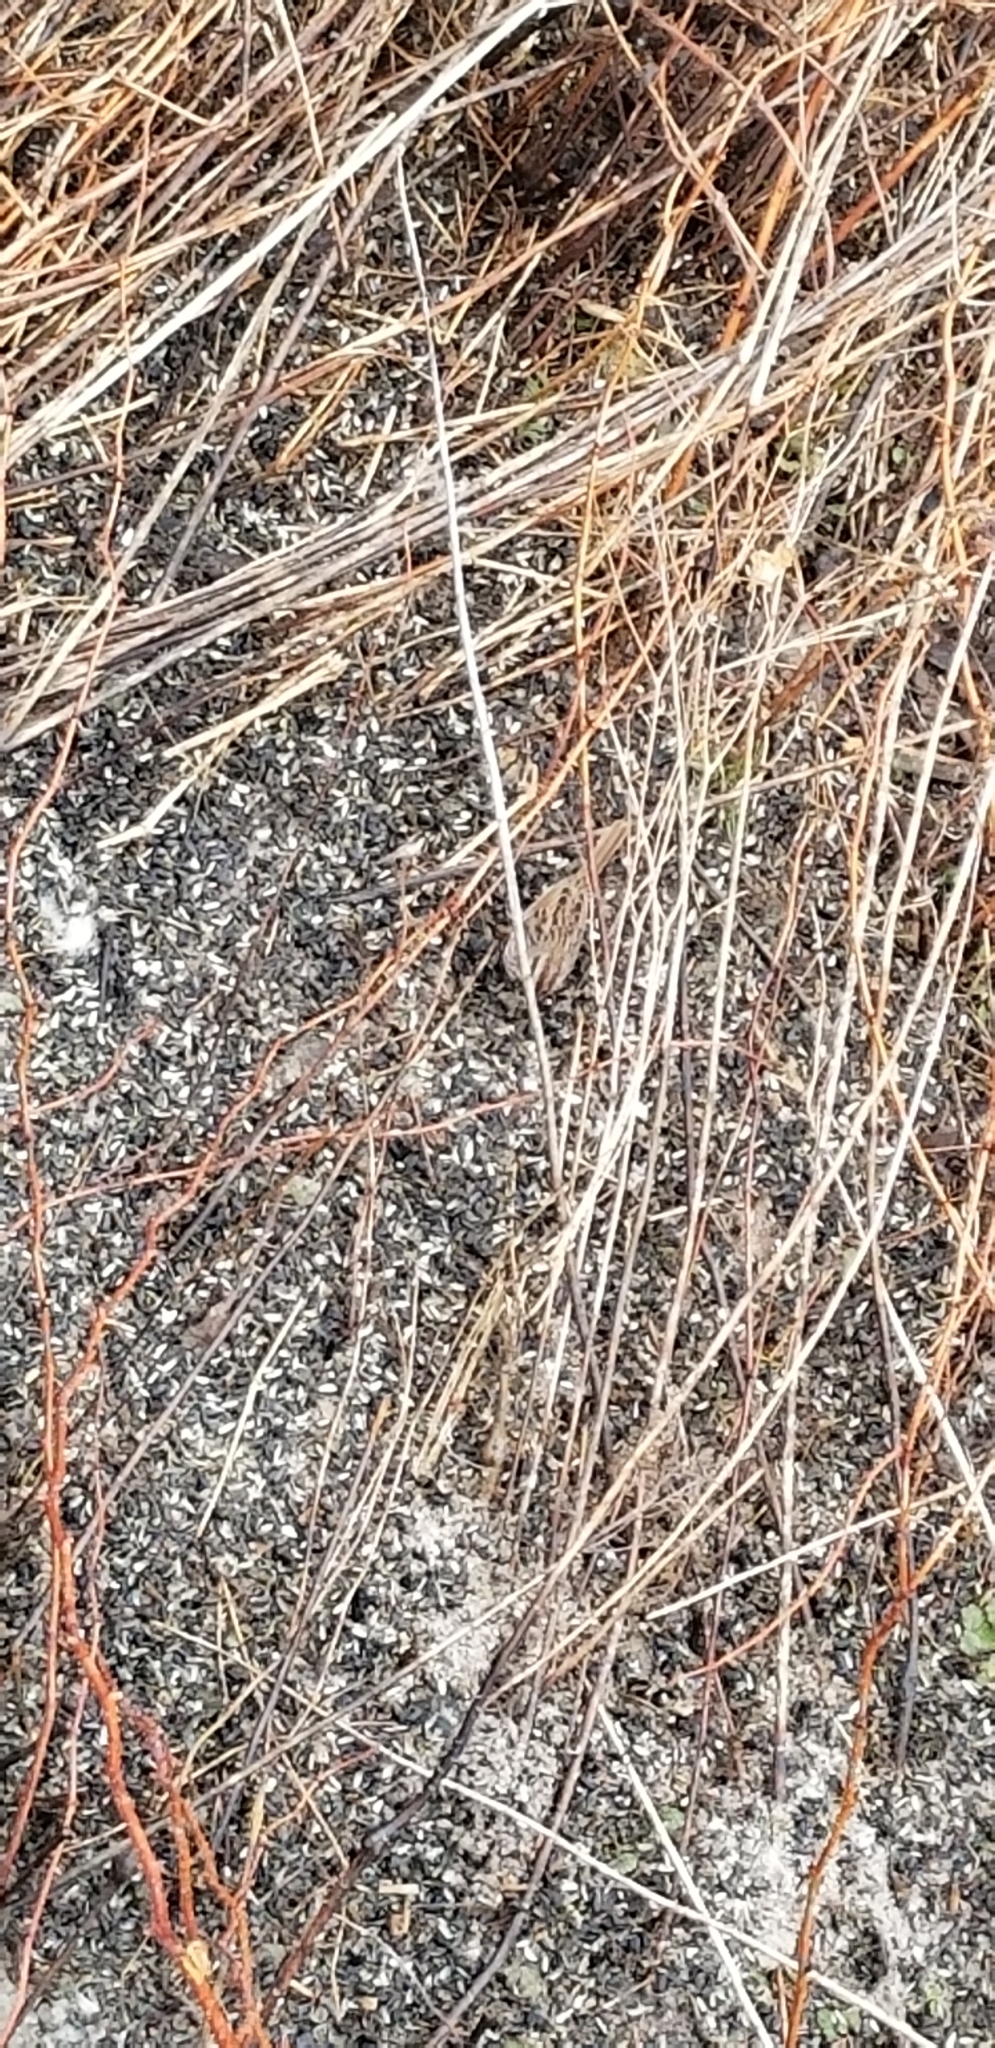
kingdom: Animalia
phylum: Chordata
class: Aves
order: Passeriformes
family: Passerellidae
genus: Melospiza
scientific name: Melospiza melodia
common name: Song sparrow
